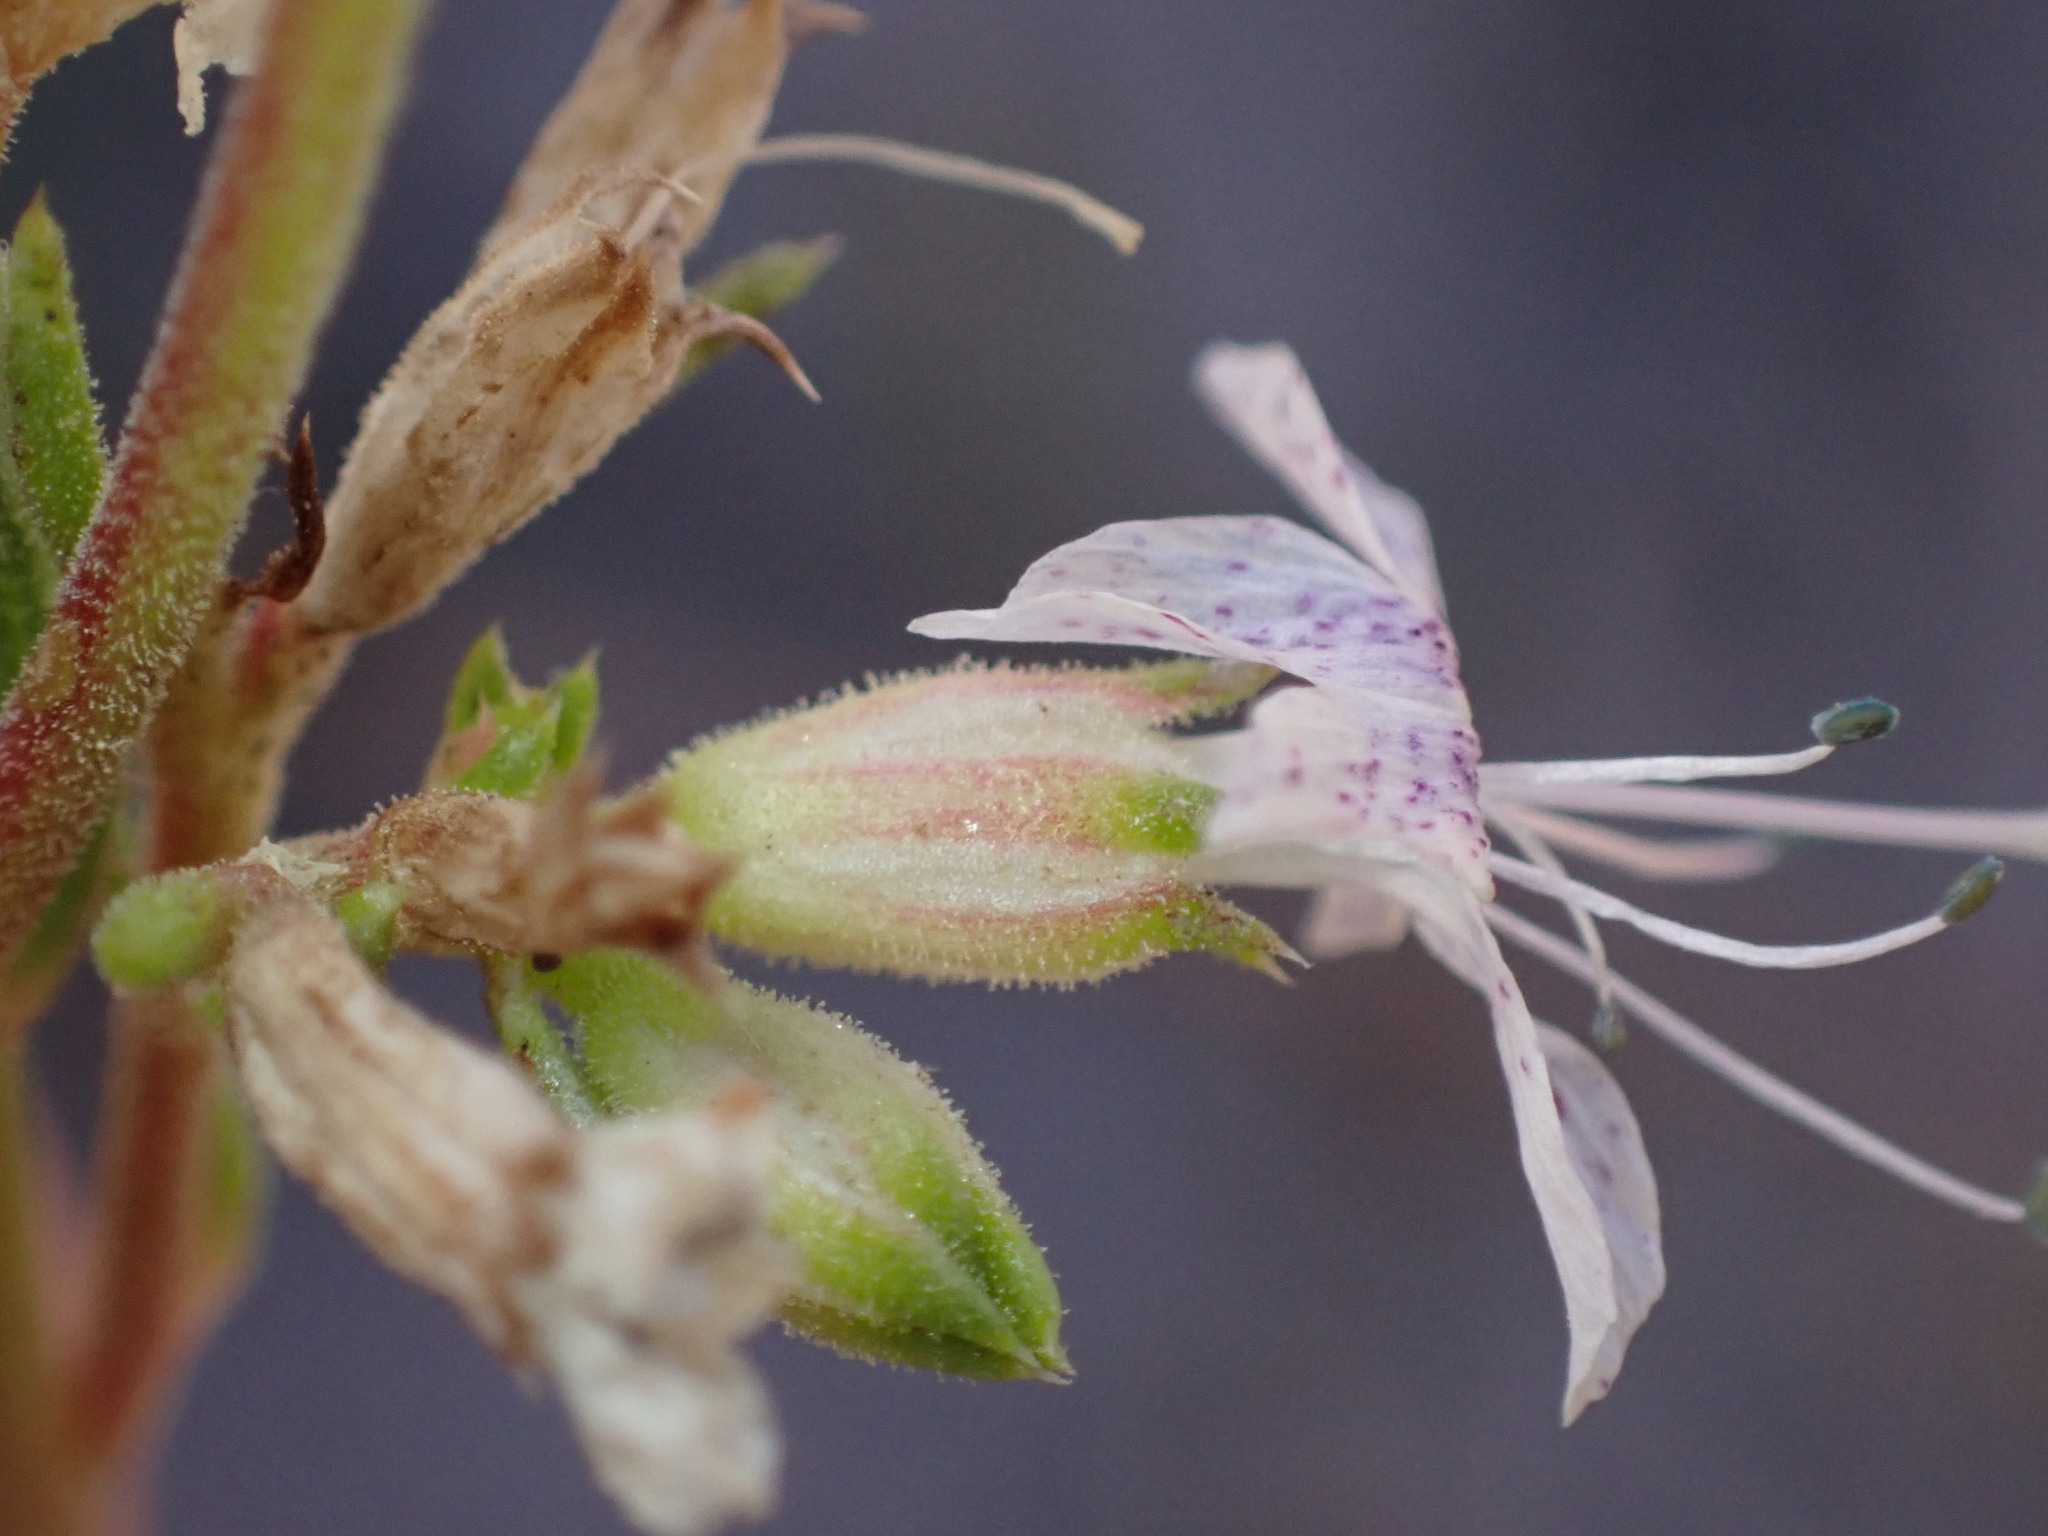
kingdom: Plantae
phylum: Tracheophyta
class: Magnoliopsida
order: Ericales
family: Polemoniaceae
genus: Ipomopsis
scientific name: Ipomopsis polyantha
